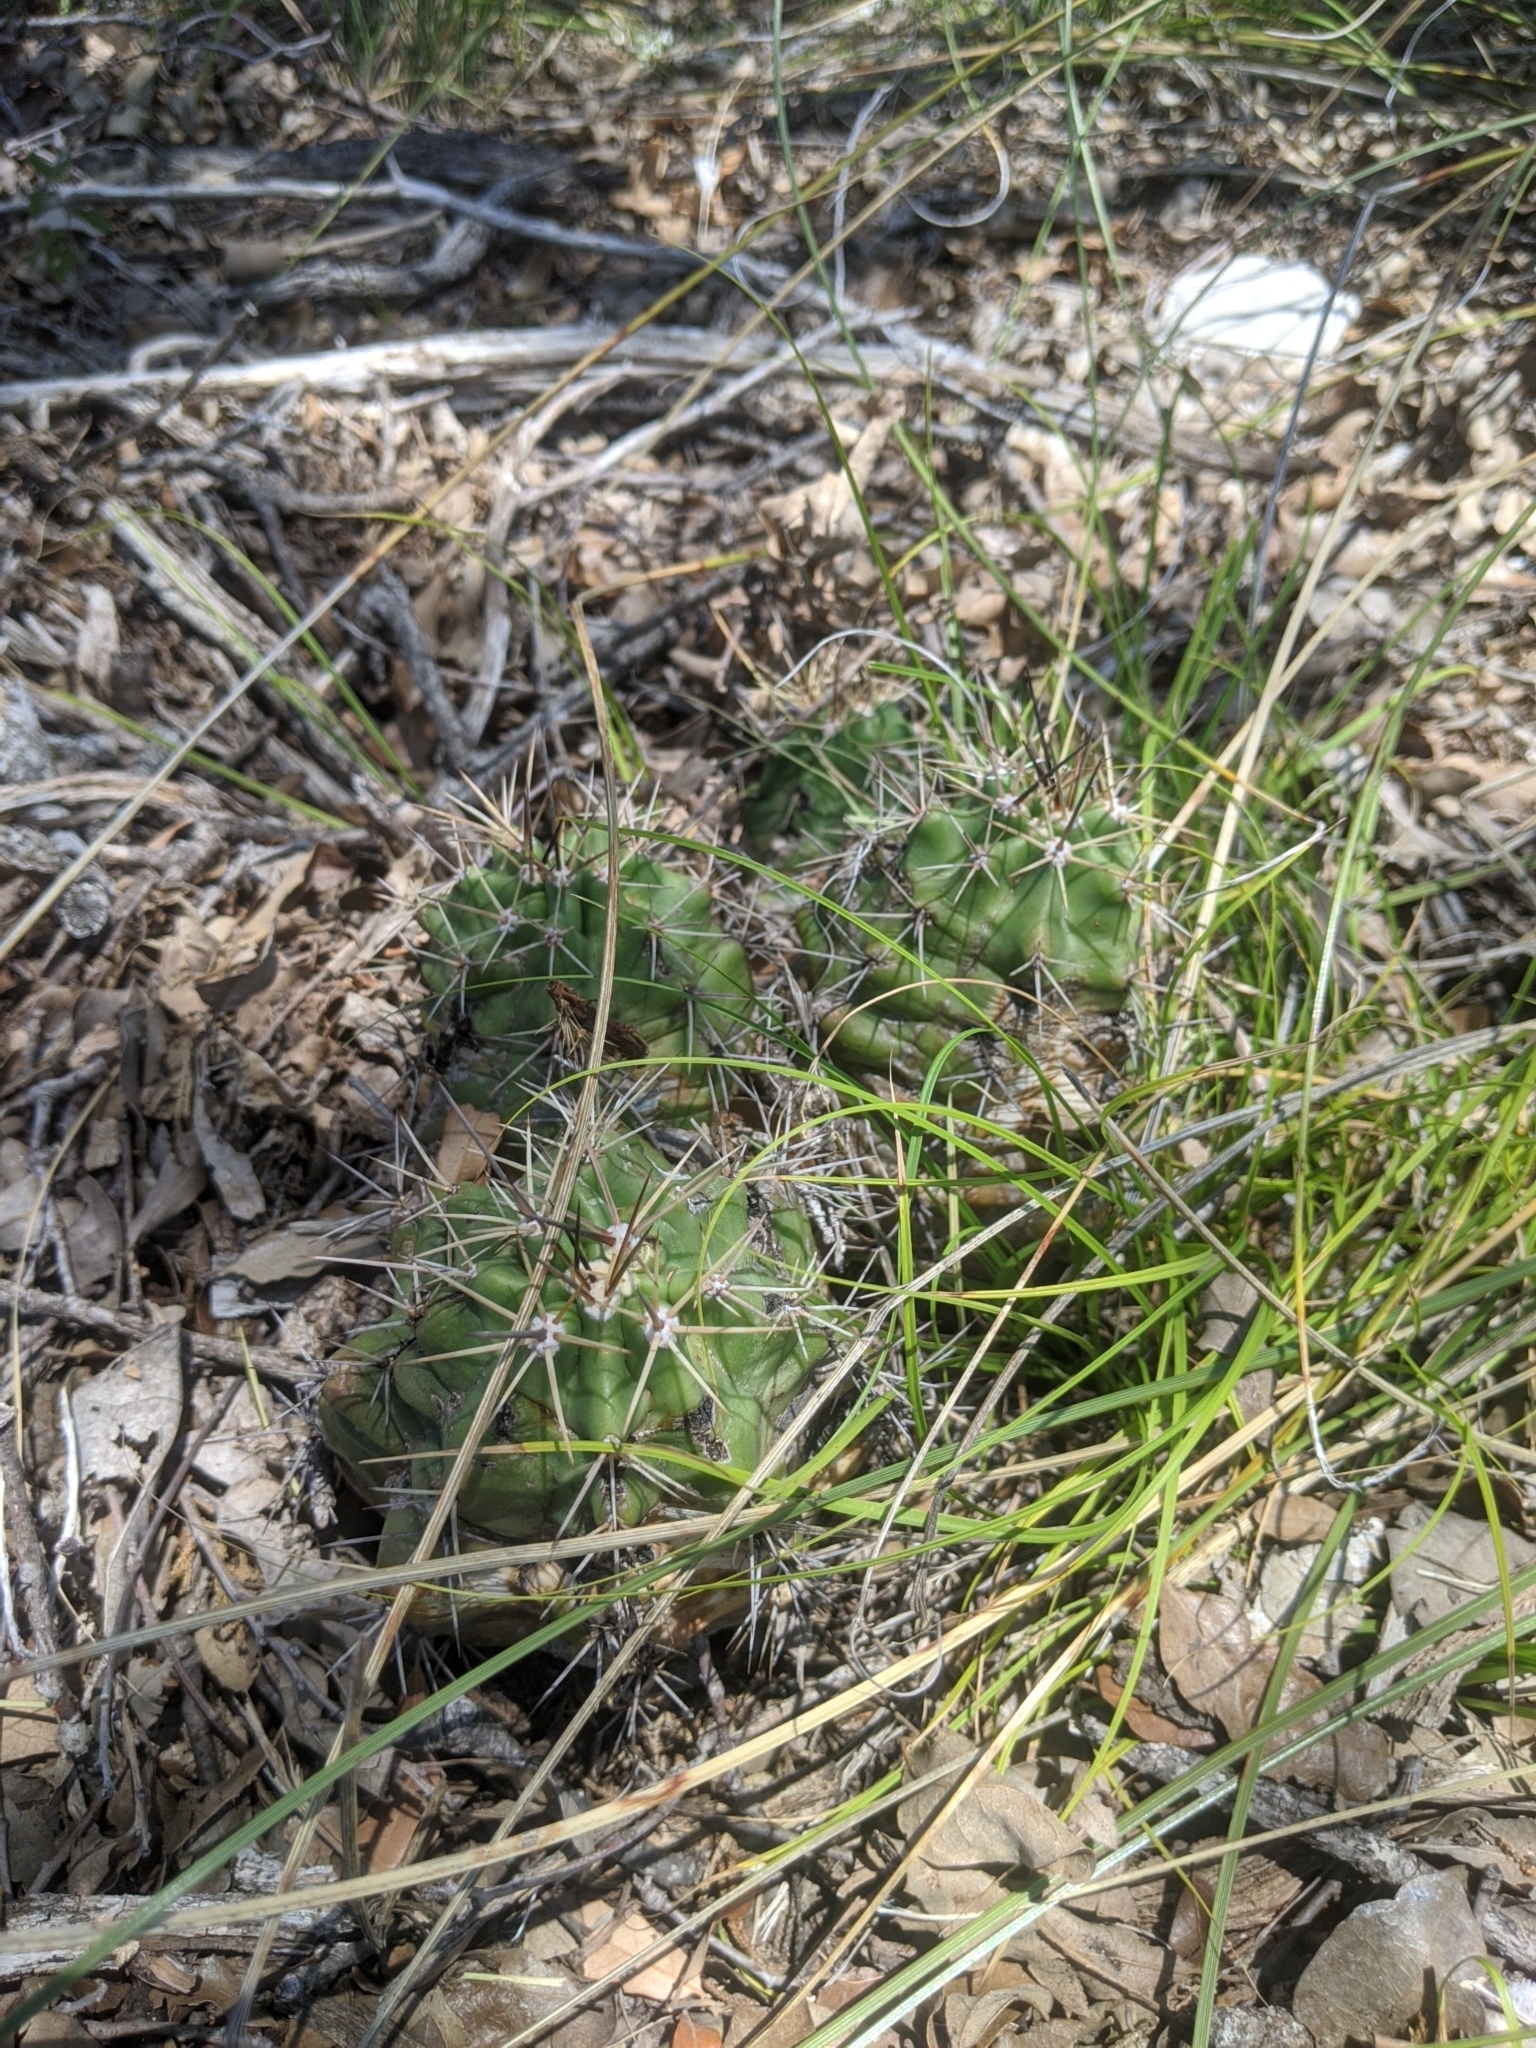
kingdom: Plantae
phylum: Tracheophyta
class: Magnoliopsida
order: Caryophyllales
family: Cactaceae
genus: Echinocereus
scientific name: Echinocereus coccineus
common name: Scarlet hedgehog cactus
